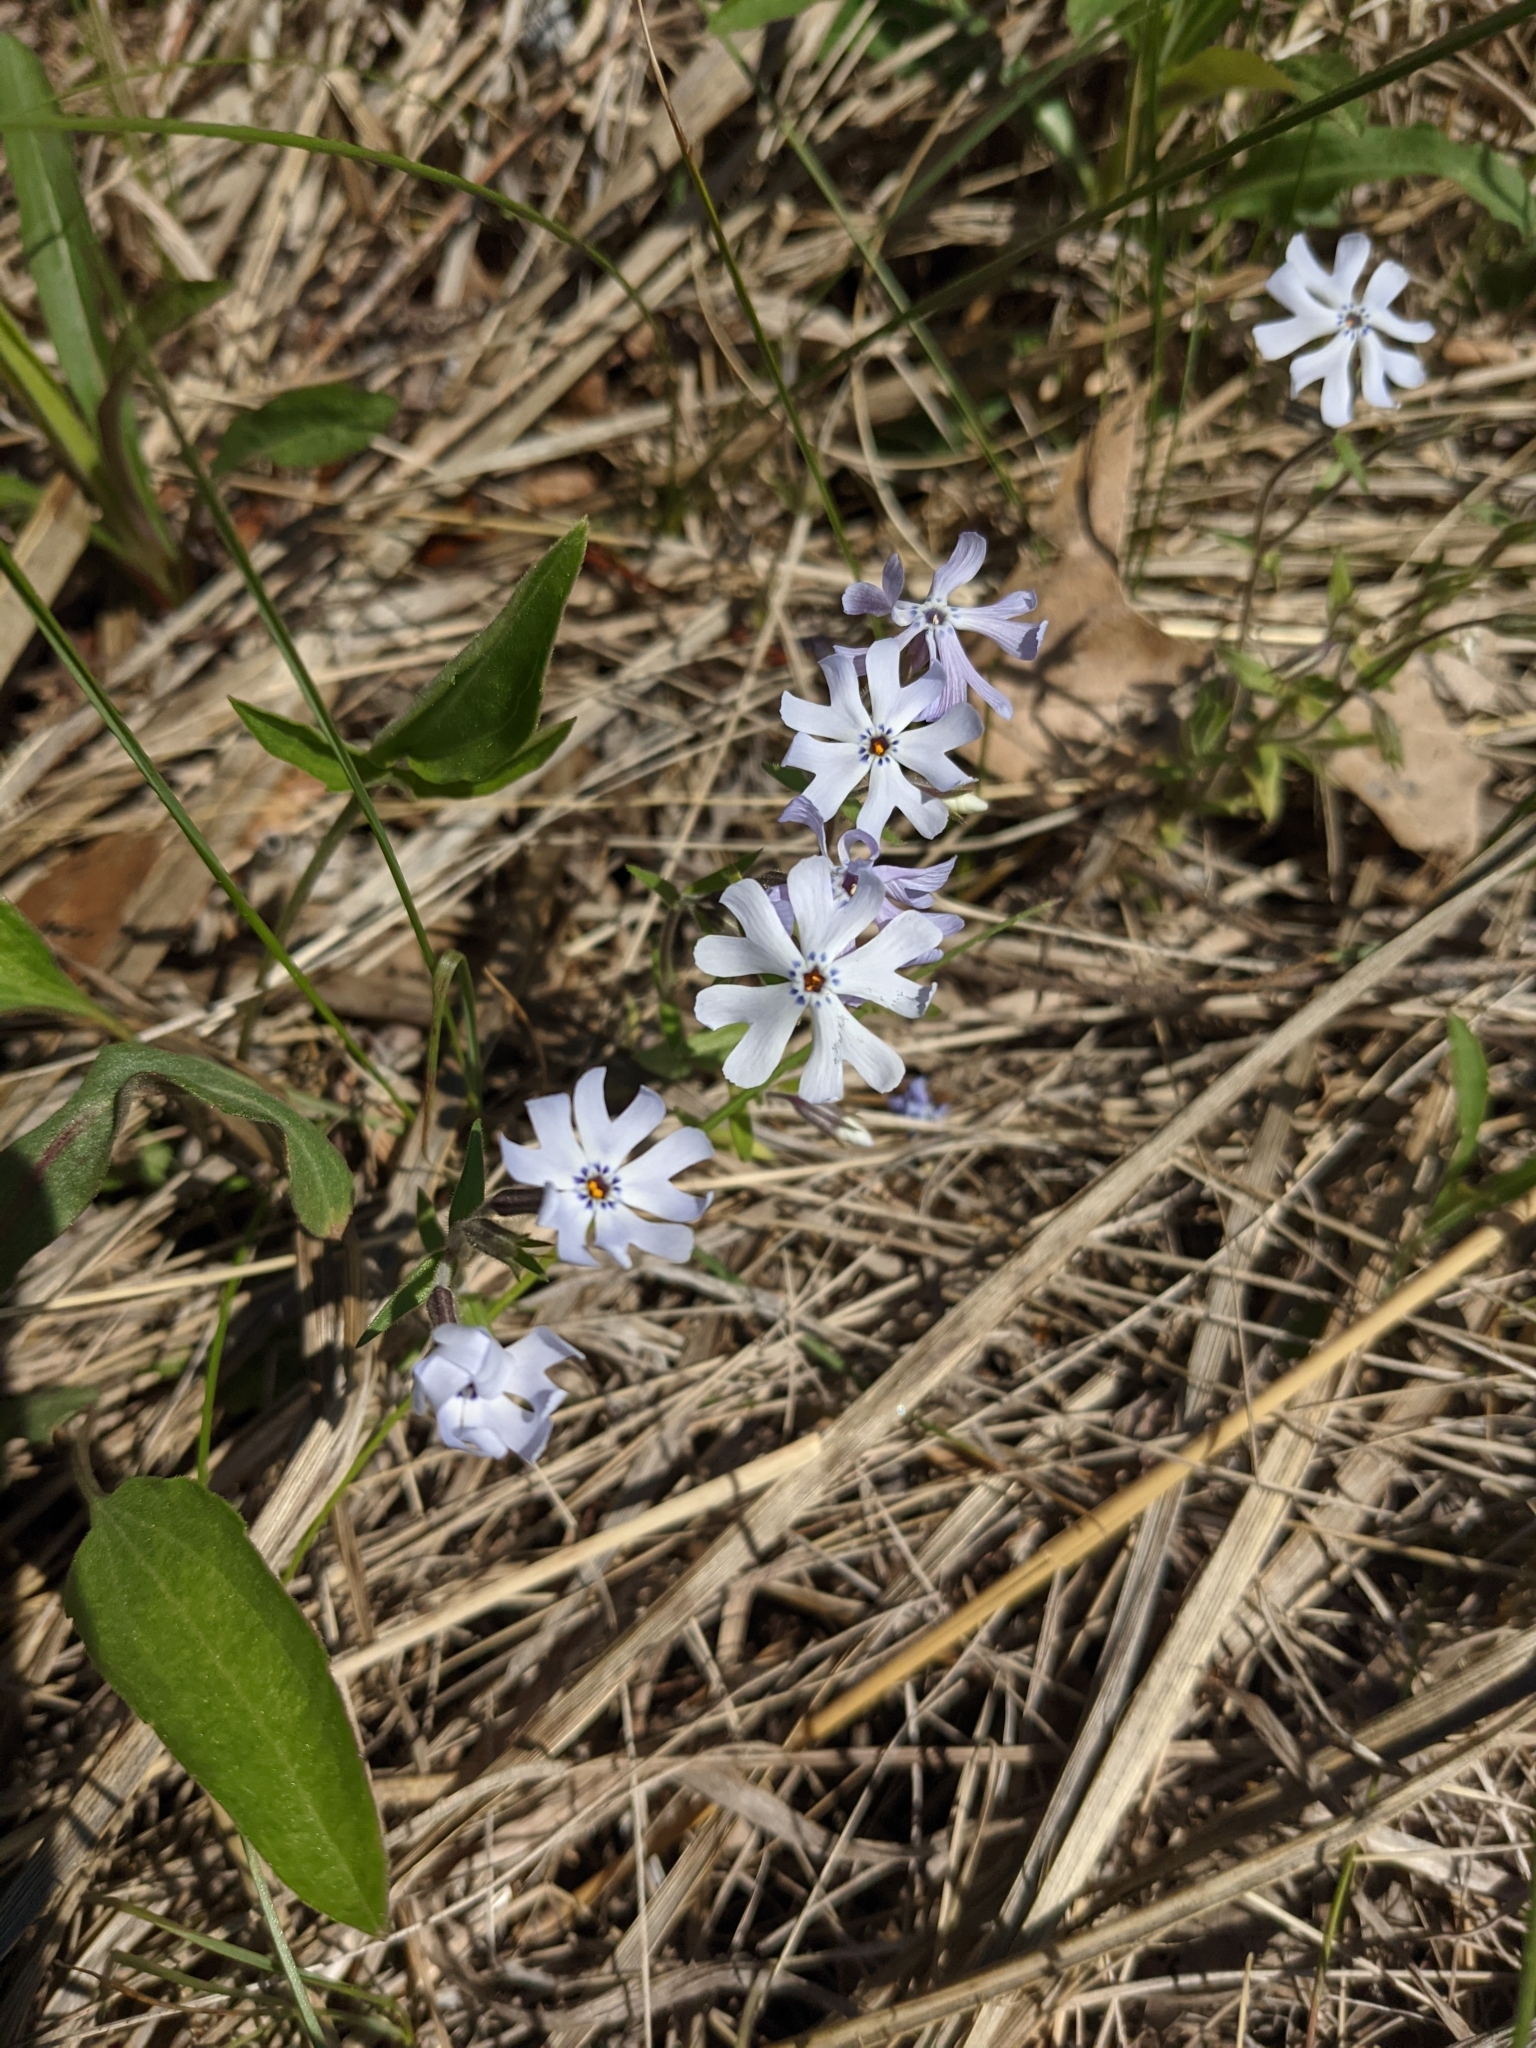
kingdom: Plantae
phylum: Tracheophyta
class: Magnoliopsida
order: Ericales
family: Polemoniaceae
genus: Phlox
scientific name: Phlox bifida
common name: Sand phlox
